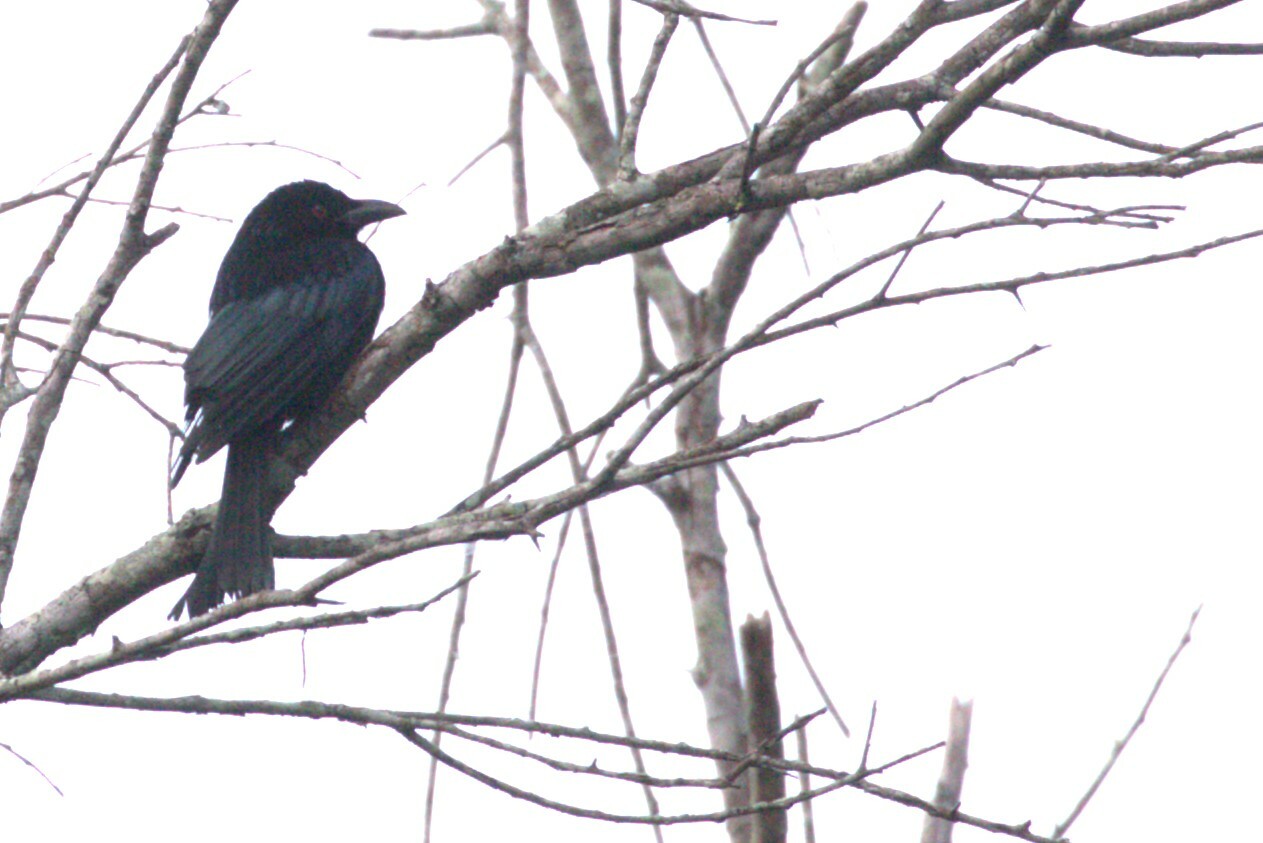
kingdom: Animalia
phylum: Chordata
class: Aves
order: Passeriformes
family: Dicruridae
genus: Dicrurus
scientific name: Dicrurus bracteatus
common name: Spangled drongo
